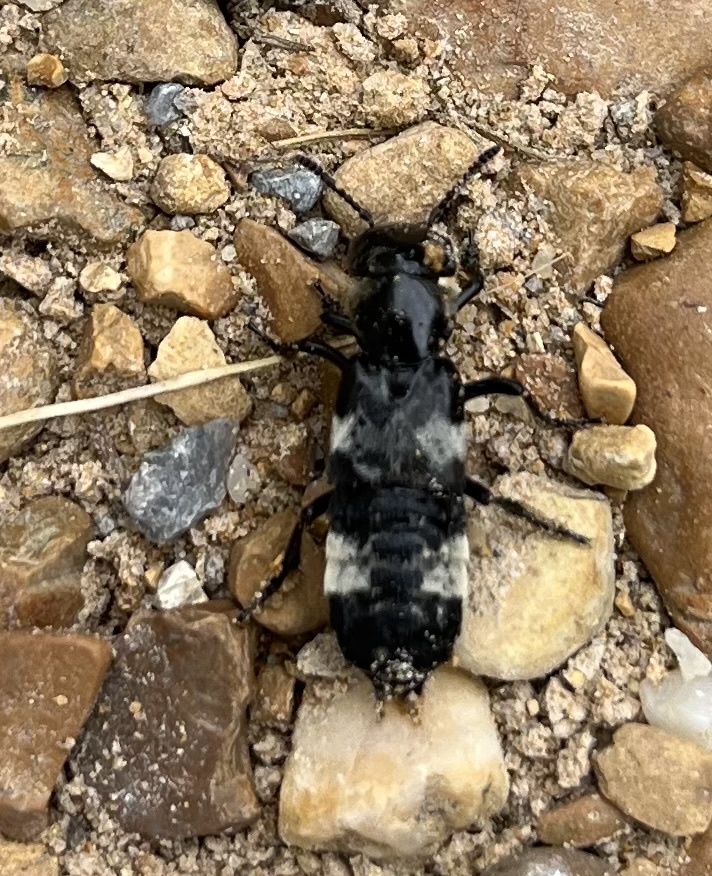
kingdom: Animalia
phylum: Arthropoda
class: Insecta
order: Coleoptera
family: Staphylinidae
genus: Creophilus
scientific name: Creophilus maxillosus
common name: Hairy rove beetle
